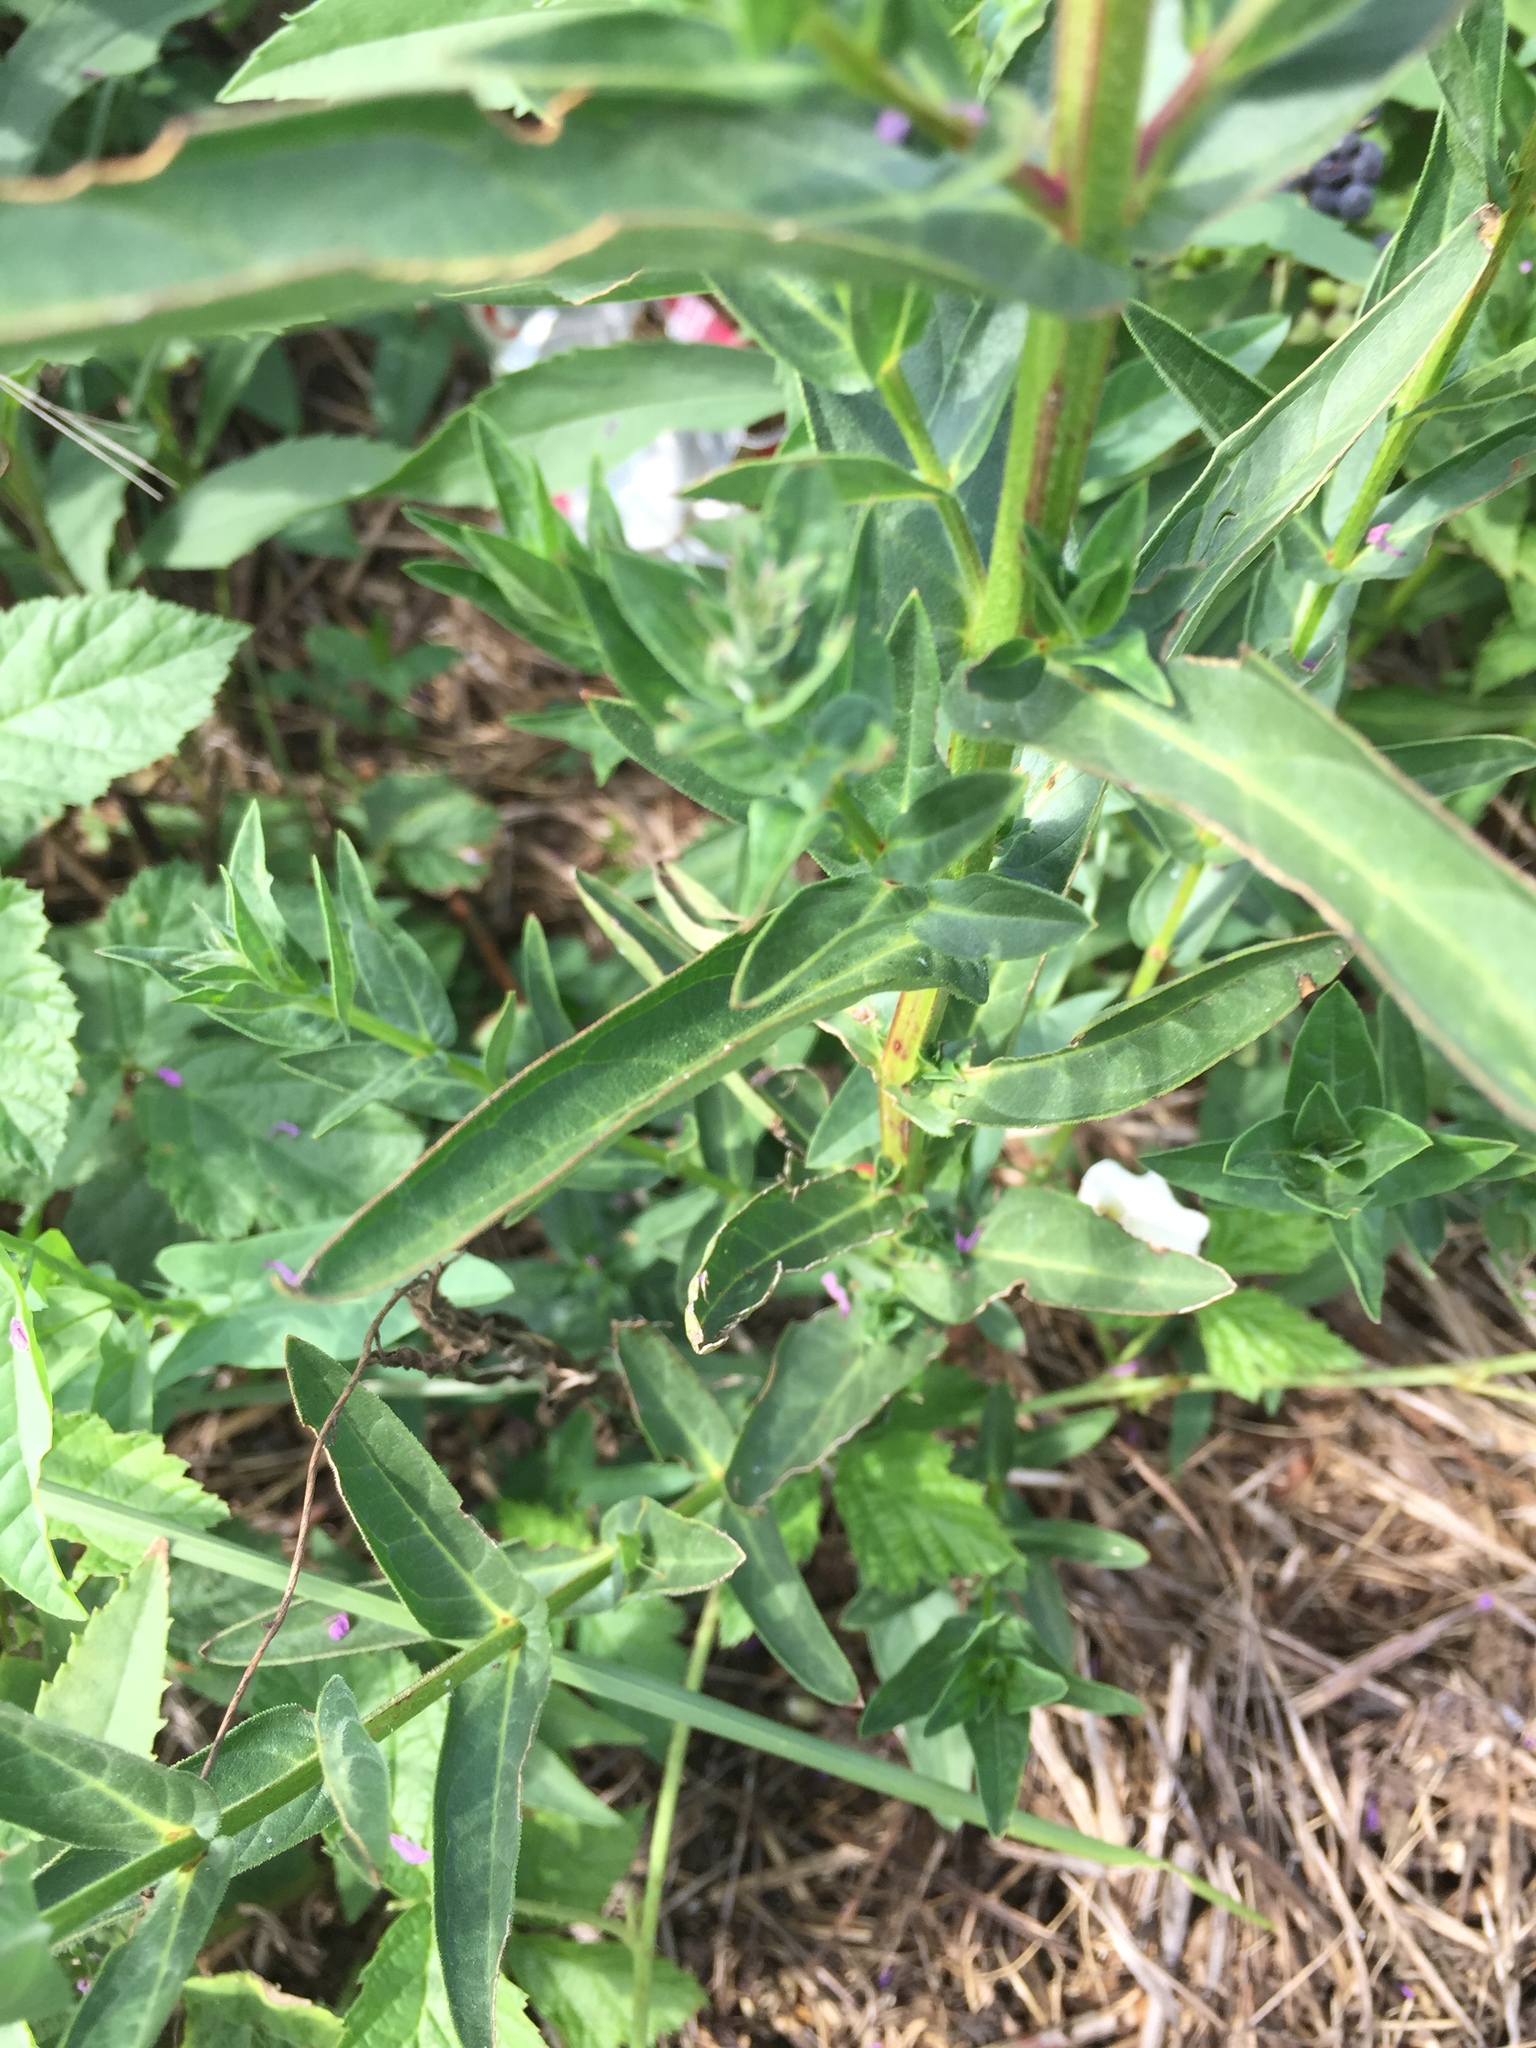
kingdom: Plantae
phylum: Tracheophyta
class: Magnoliopsida
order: Myrtales
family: Lythraceae
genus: Lythrum
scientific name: Lythrum salicaria
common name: Purple loosestrife
